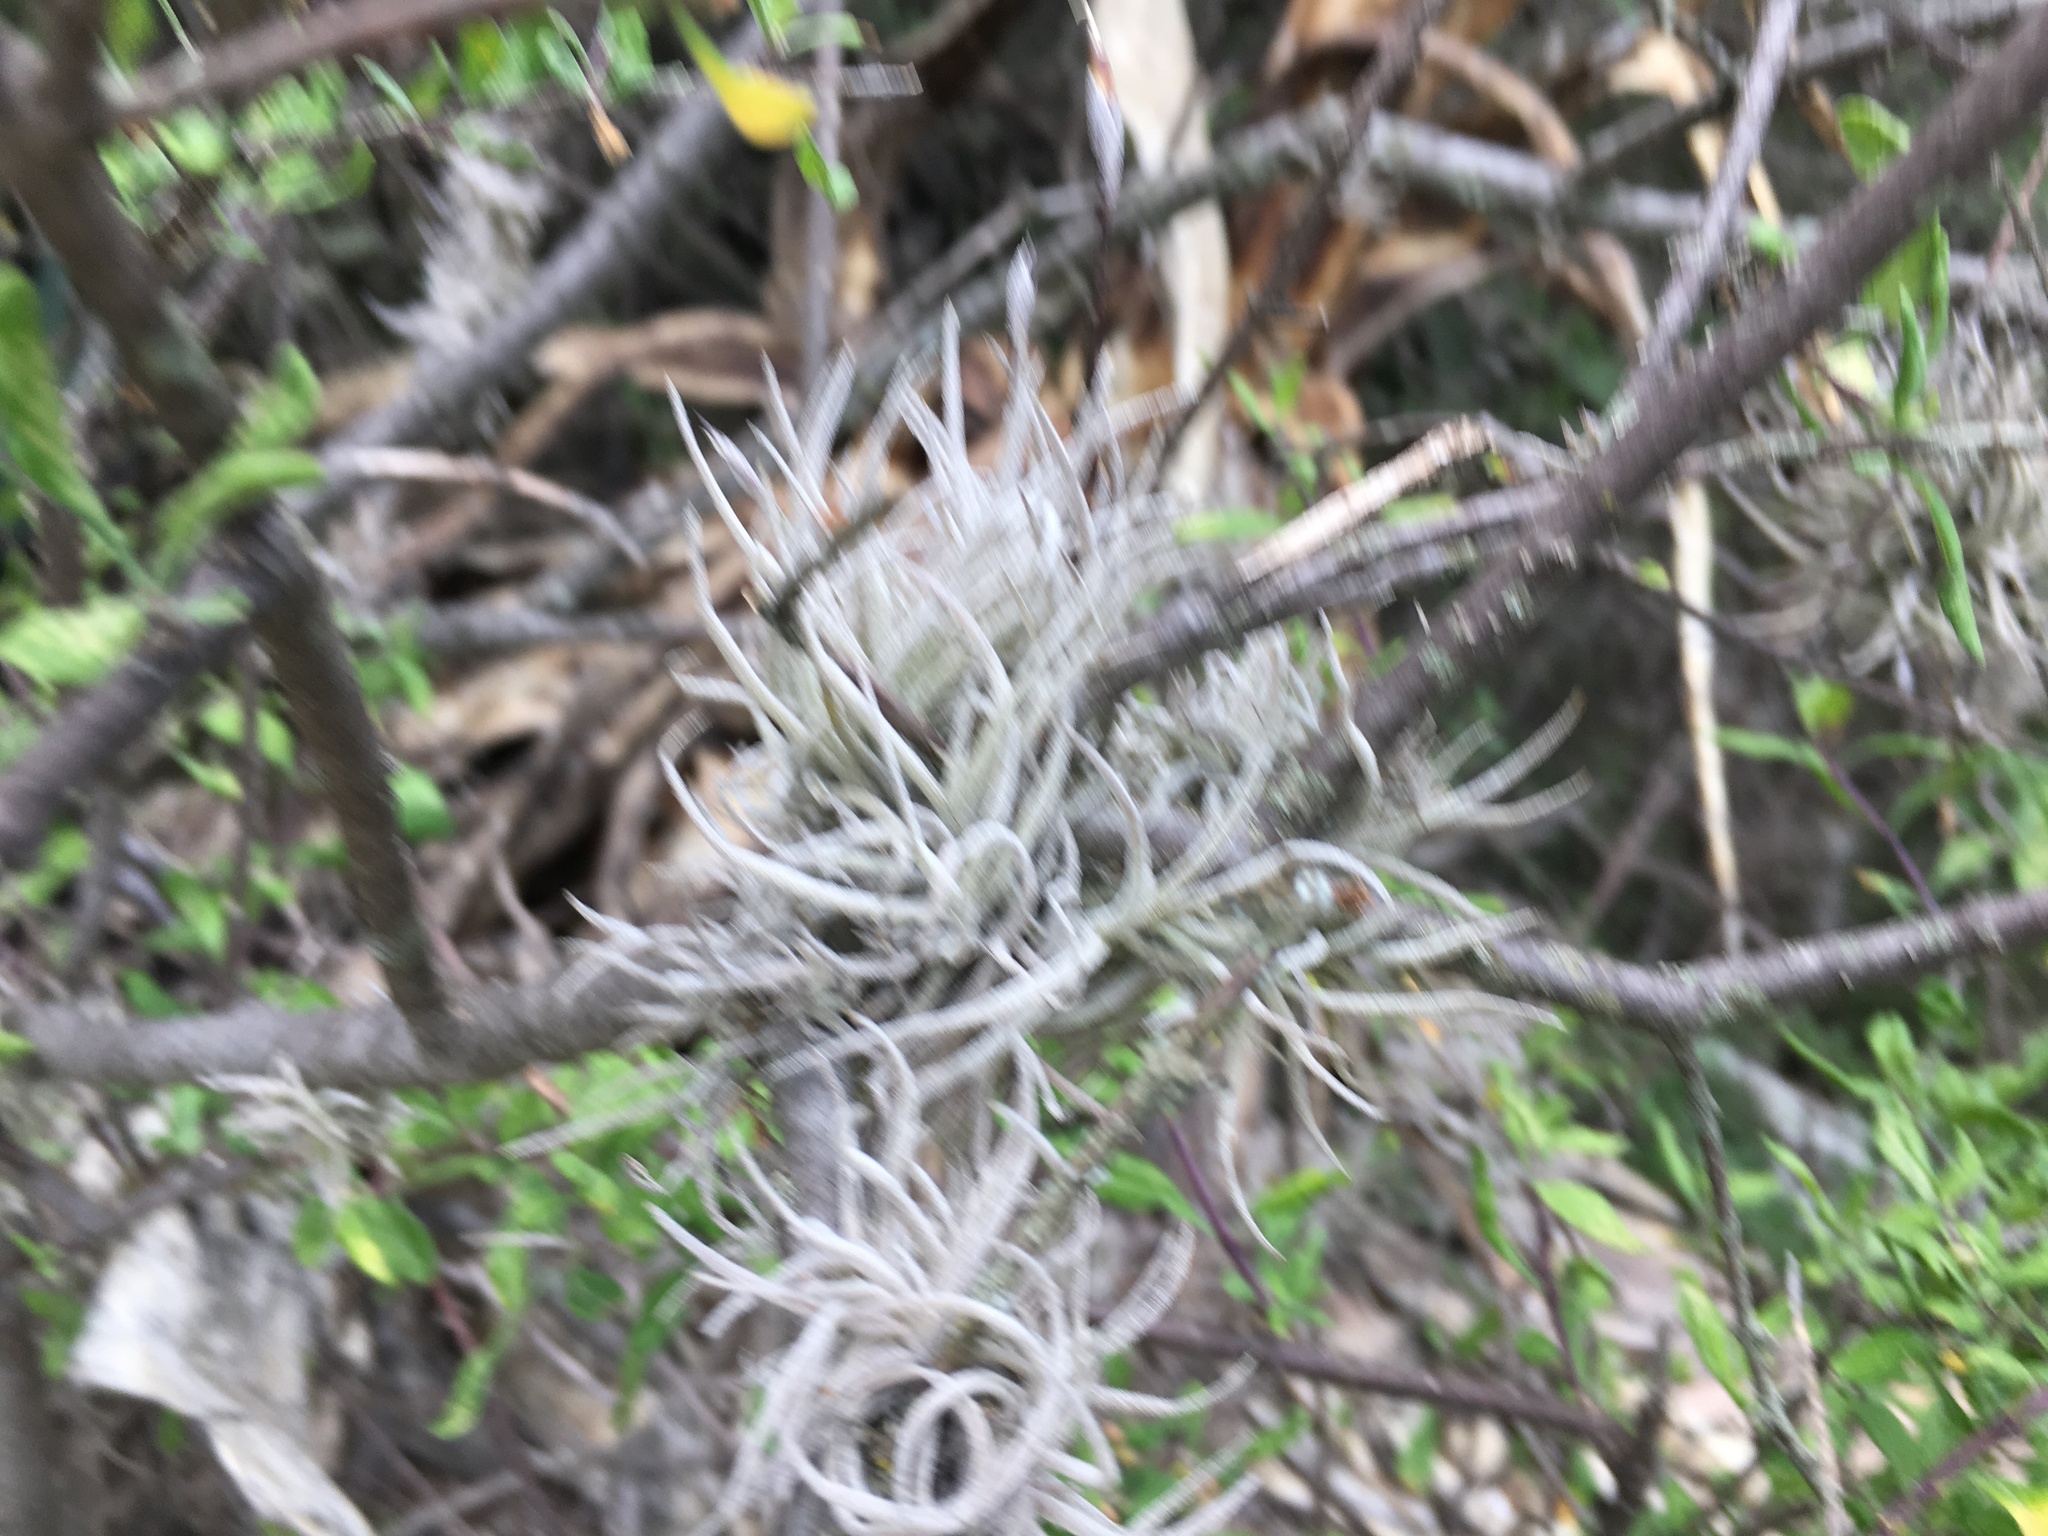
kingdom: Plantae
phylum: Tracheophyta
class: Liliopsida
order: Poales
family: Bromeliaceae
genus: Tillandsia
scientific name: Tillandsia recurvata
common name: Small ballmoss
